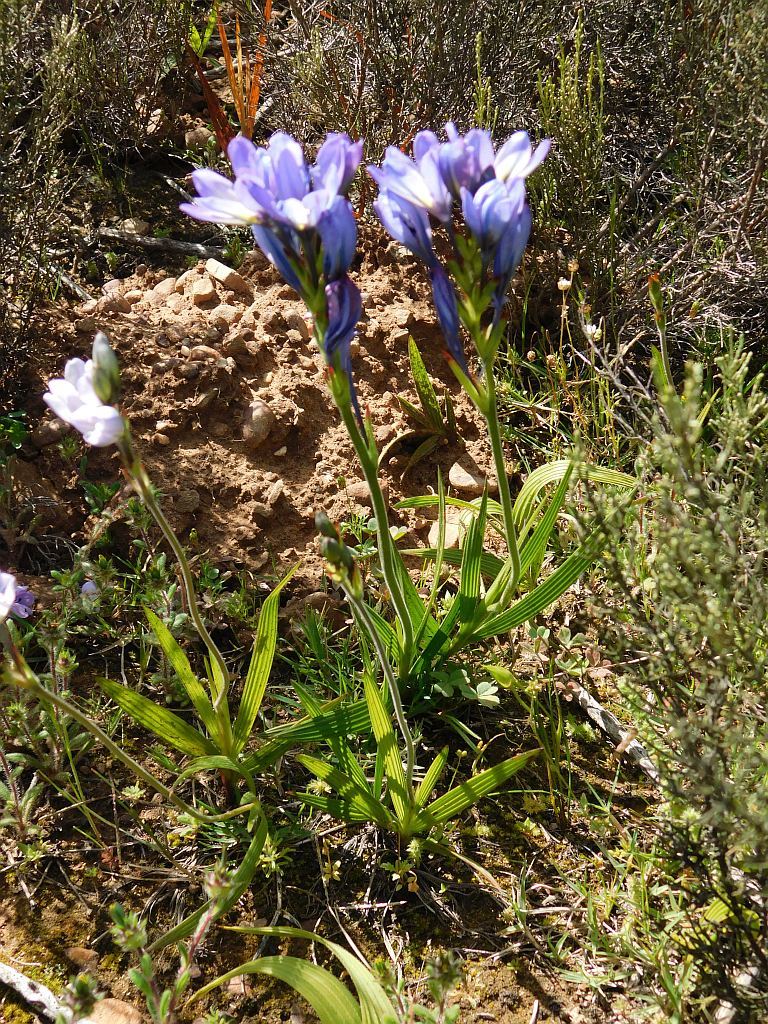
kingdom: Plantae
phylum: Tracheophyta
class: Liliopsida
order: Asparagales
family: Iridaceae
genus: Babiana
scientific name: Babiana nervosa
